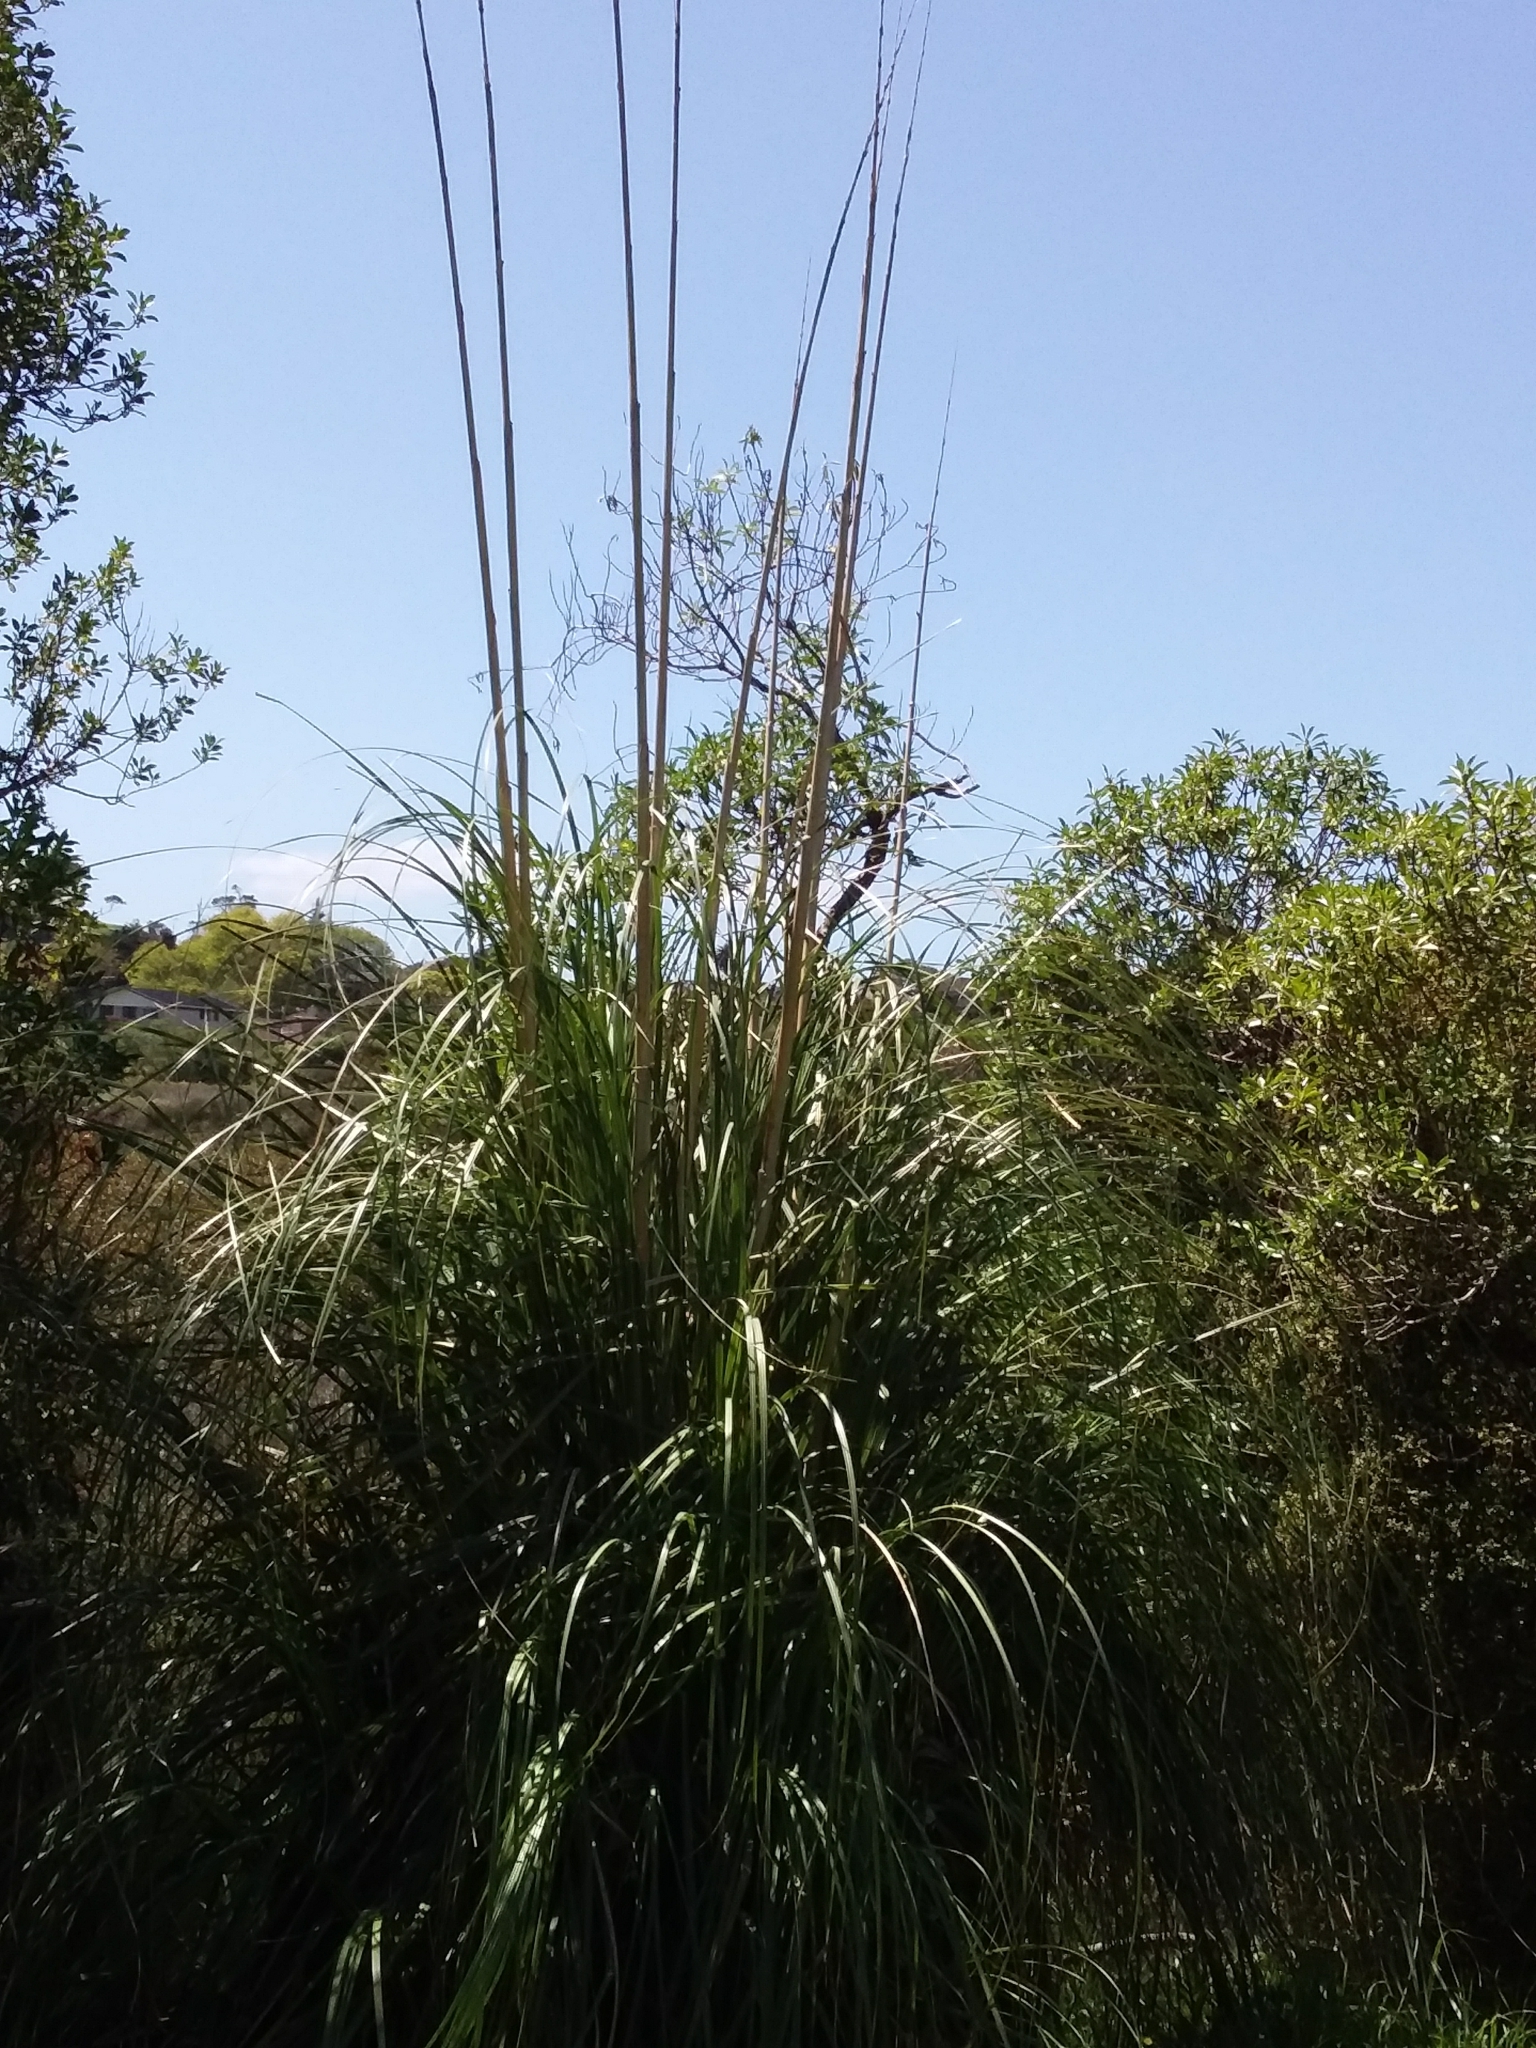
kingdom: Plantae
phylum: Tracheophyta
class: Liliopsida
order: Poales
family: Poaceae
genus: Cortaderia
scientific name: Cortaderia selloana
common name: Uruguayan pampas grass
